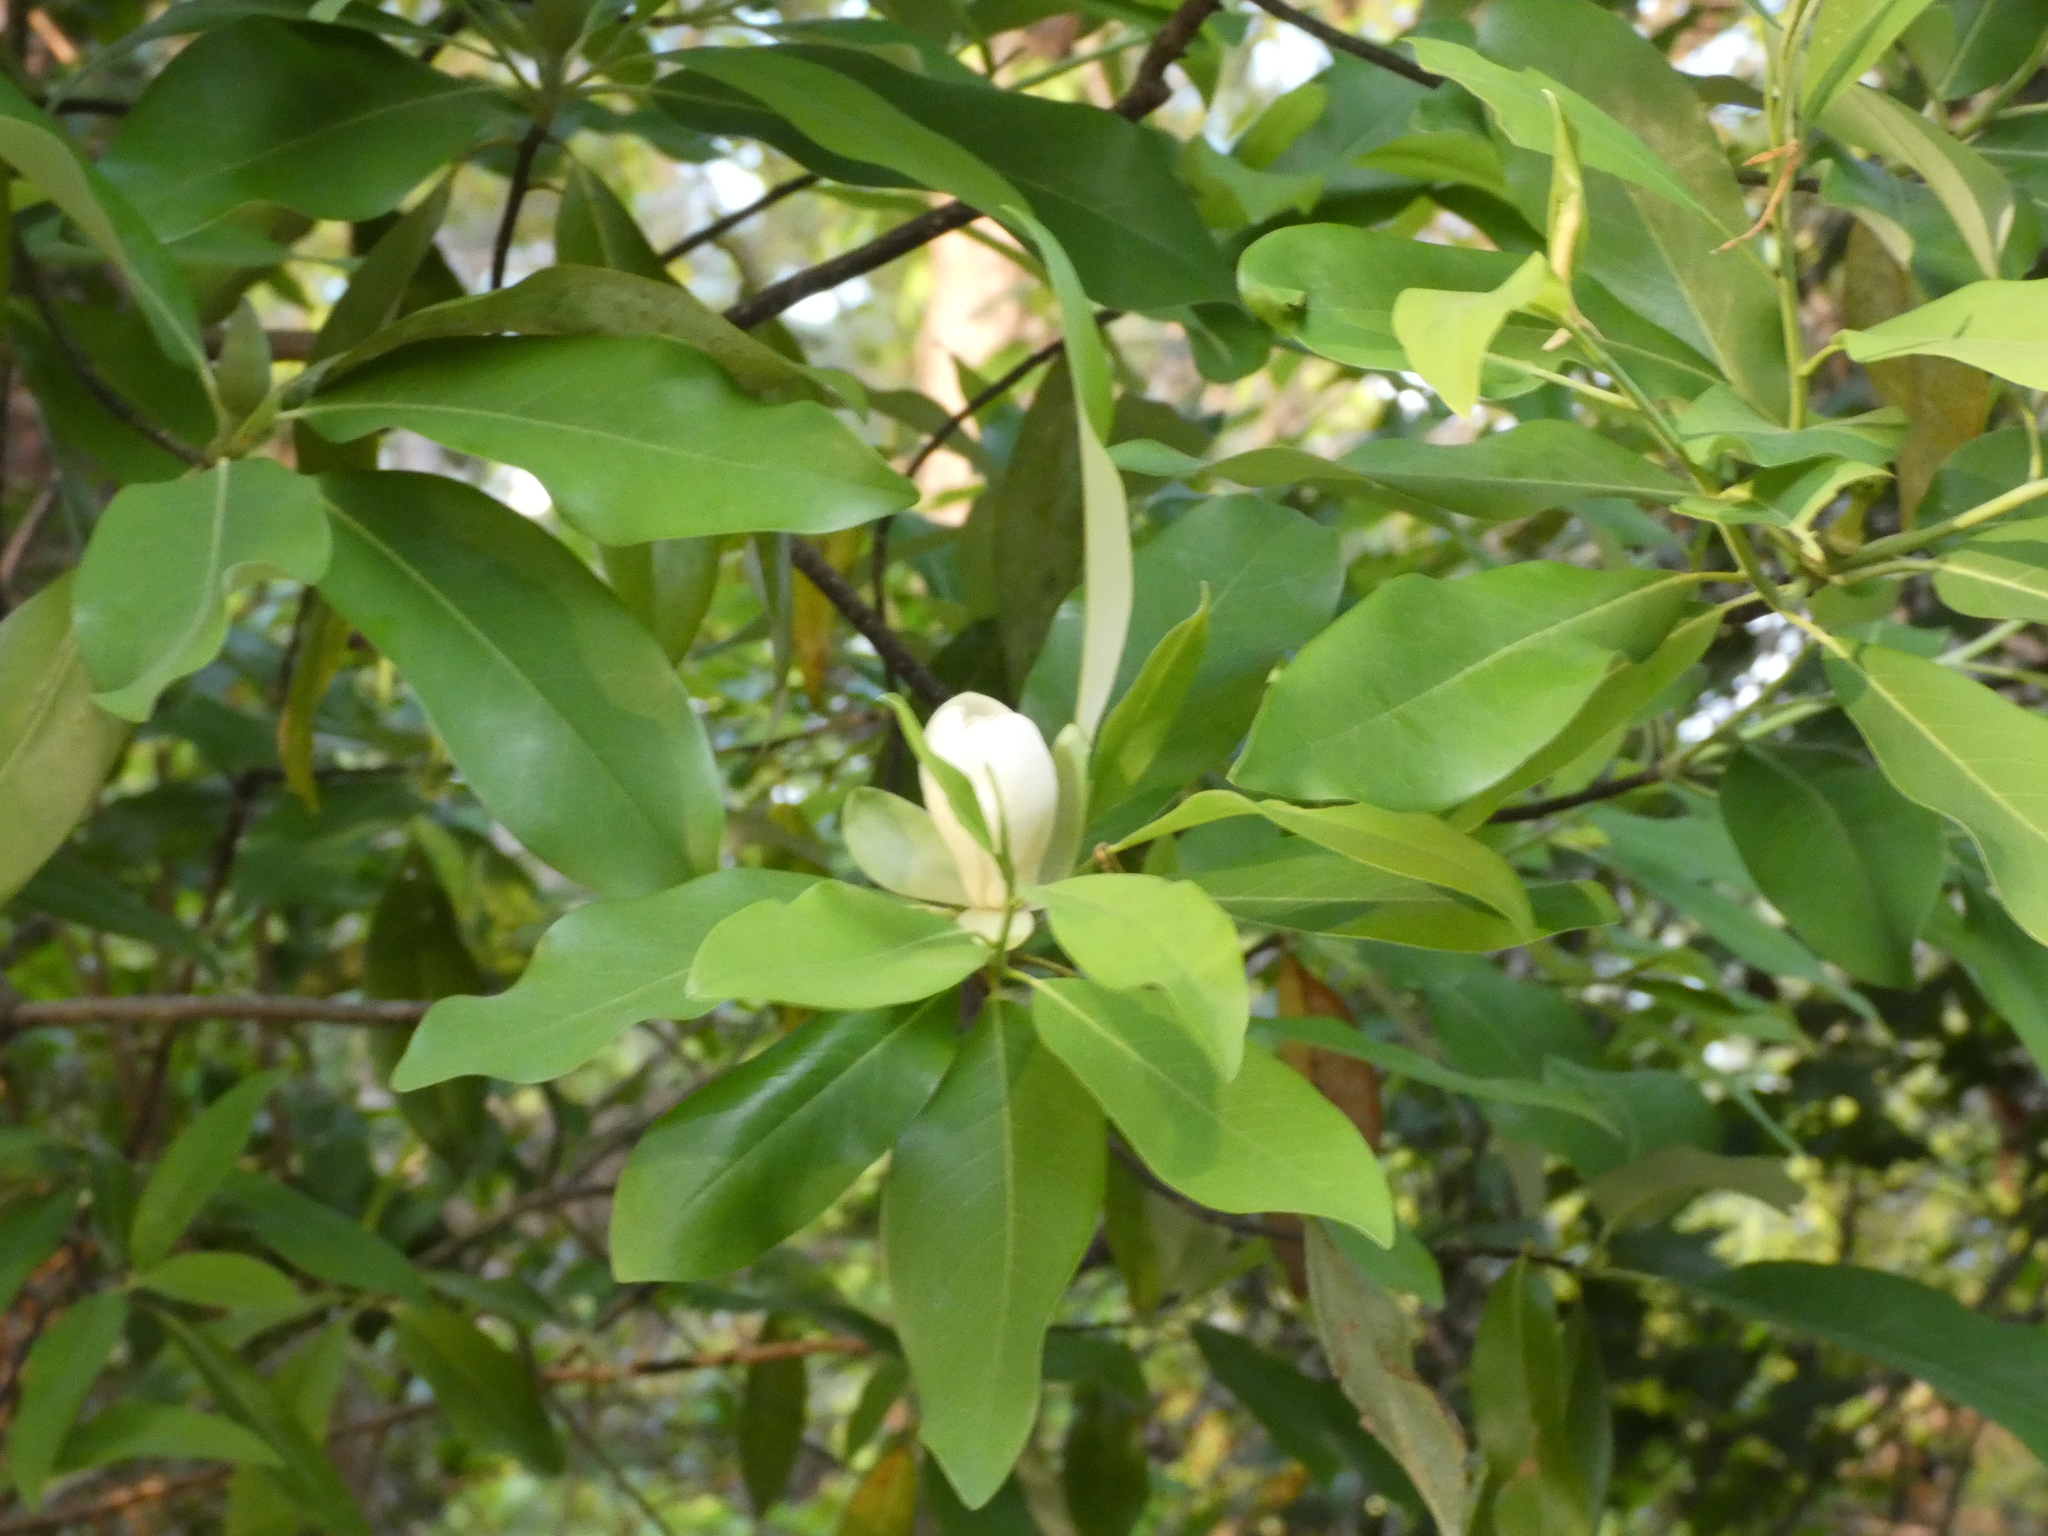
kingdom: Plantae
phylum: Tracheophyta
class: Magnoliopsida
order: Magnoliales
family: Magnoliaceae
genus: Magnolia
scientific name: Magnolia virginiana
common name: Swamp bay
